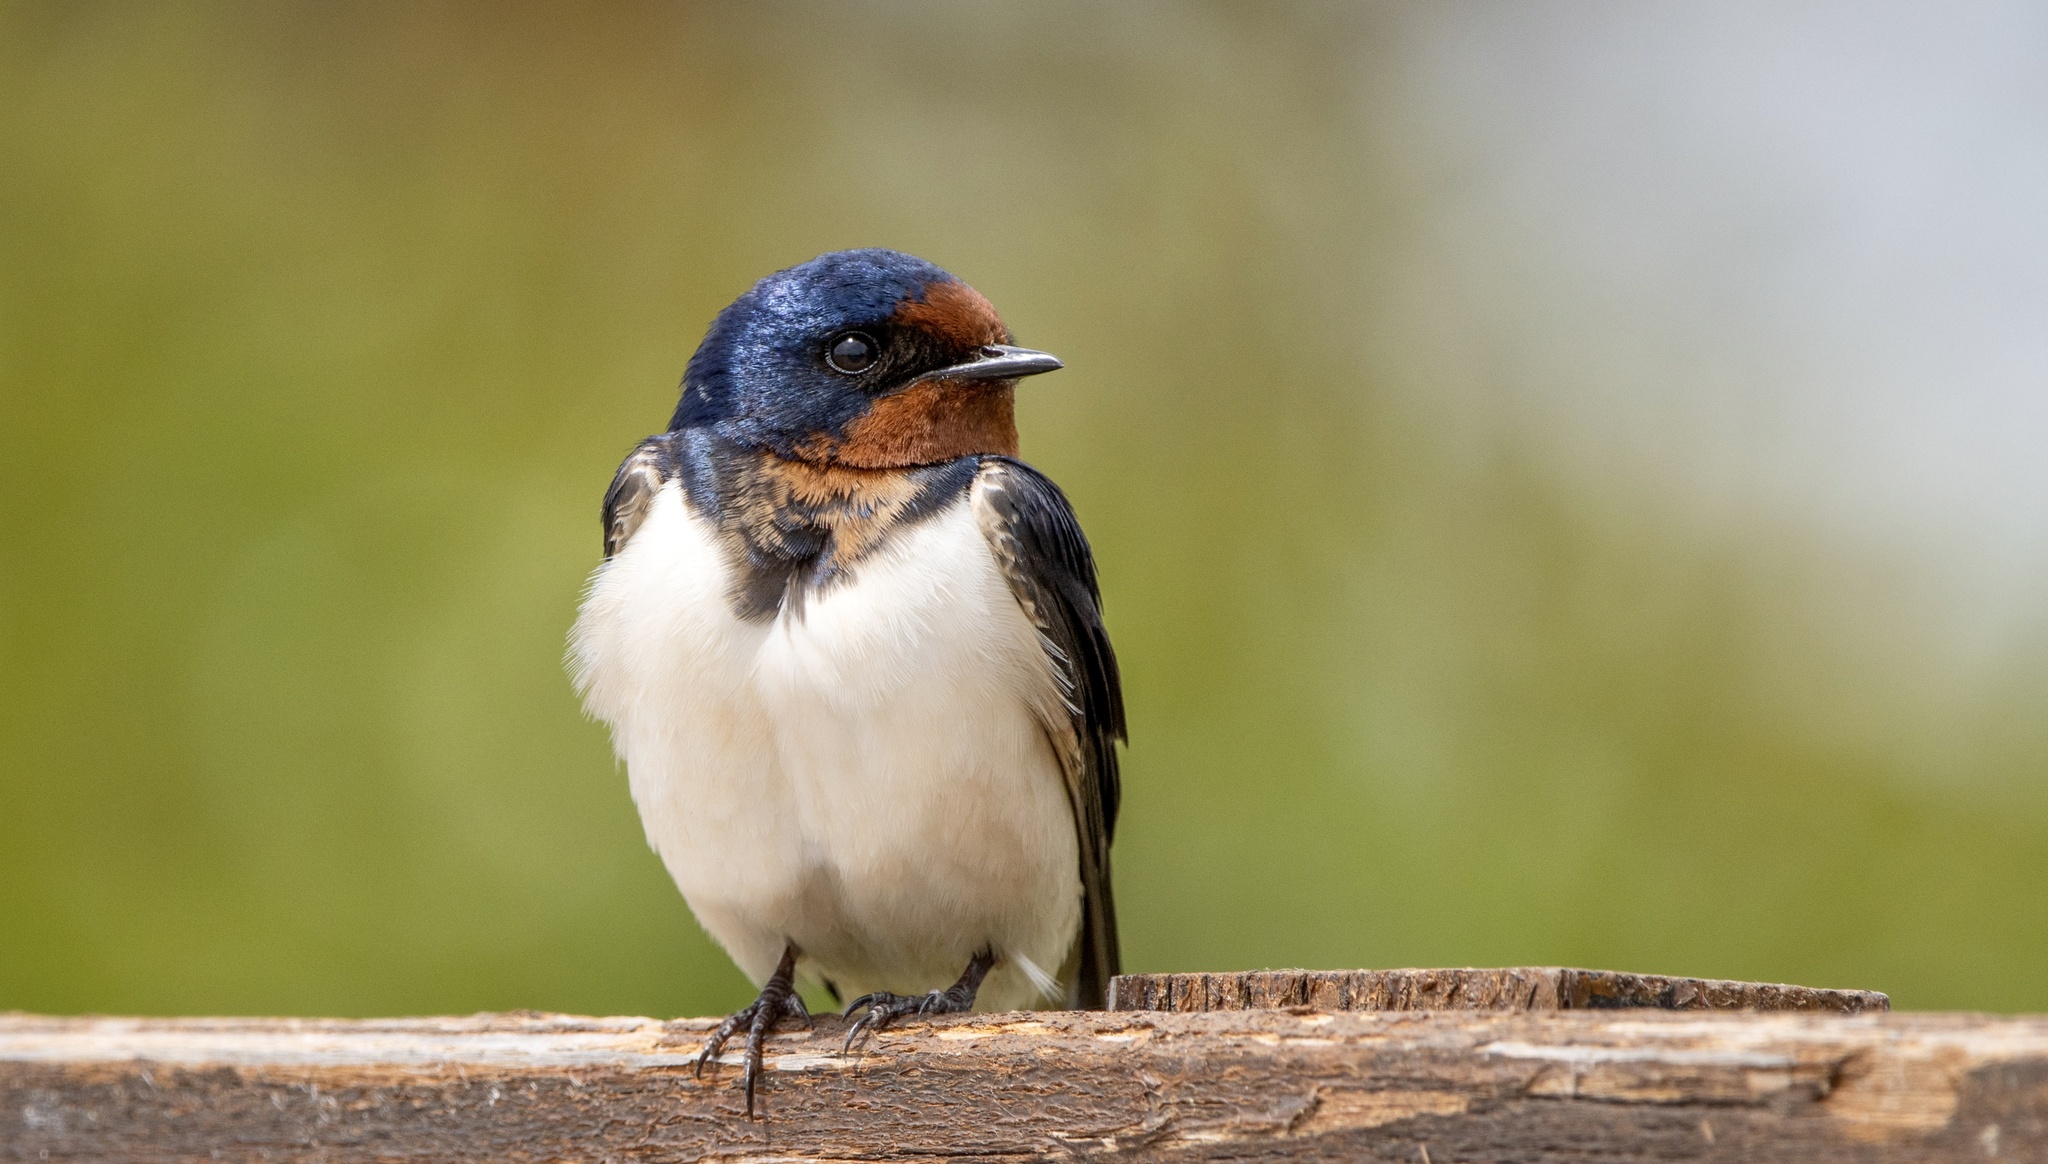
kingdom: Animalia
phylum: Chordata
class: Aves
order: Passeriformes
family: Hirundinidae
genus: Hirundo
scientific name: Hirundo rustica
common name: Barn swallow
